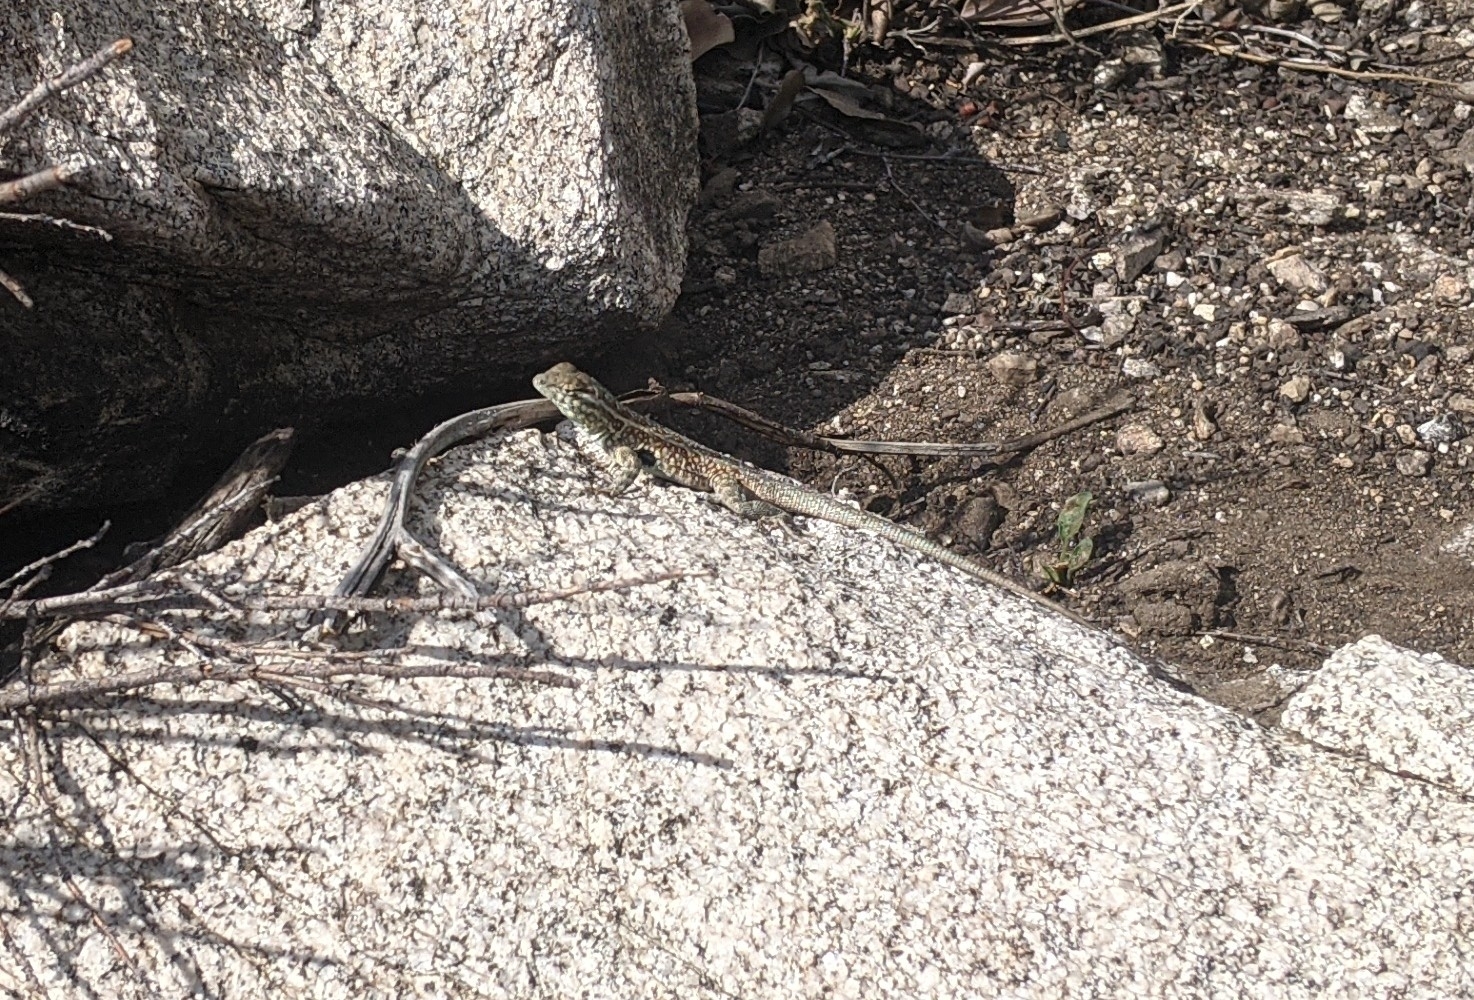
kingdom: Animalia
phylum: Chordata
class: Squamata
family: Phrynosomatidae
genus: Uta
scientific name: Uta stansburiana
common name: Side-blotched lizard
